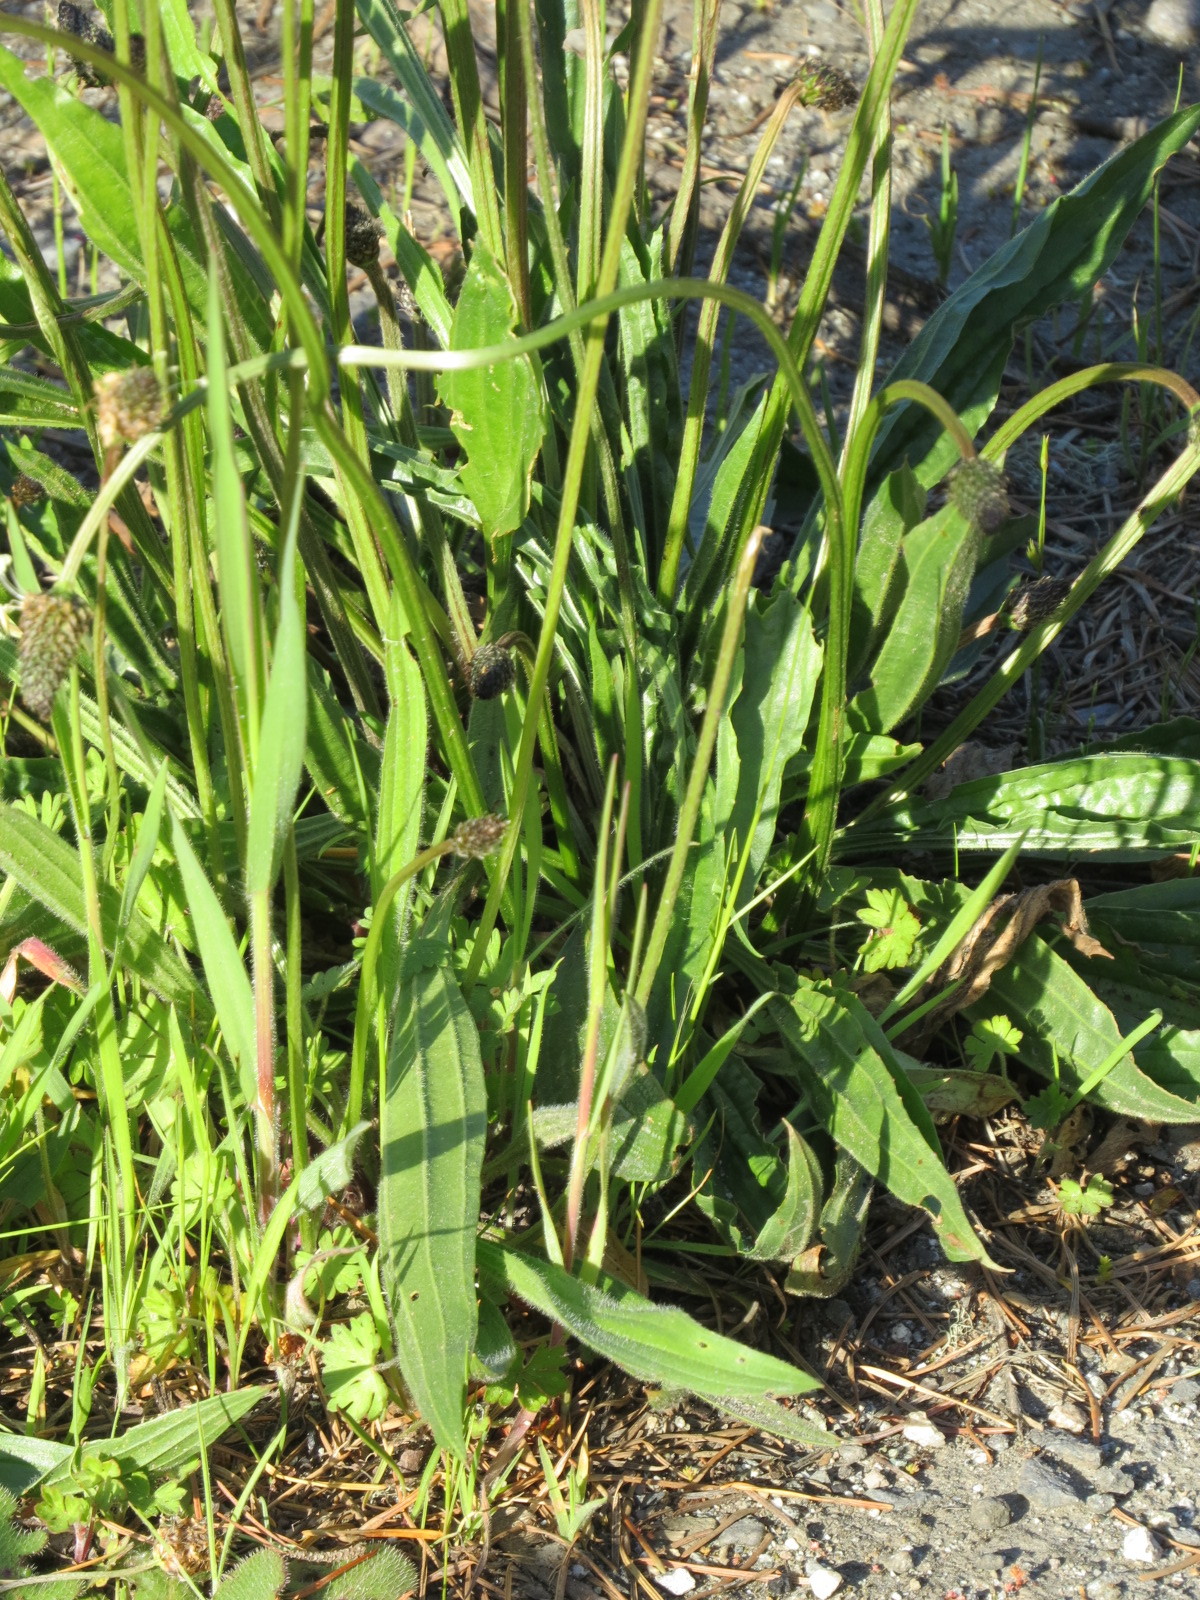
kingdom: Plantae
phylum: Tracheophyta
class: Magnoliopsida
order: Lamiales
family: Plantaginaceae
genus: Plantago
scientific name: Plantago lanceolata
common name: Ribwort plantain
